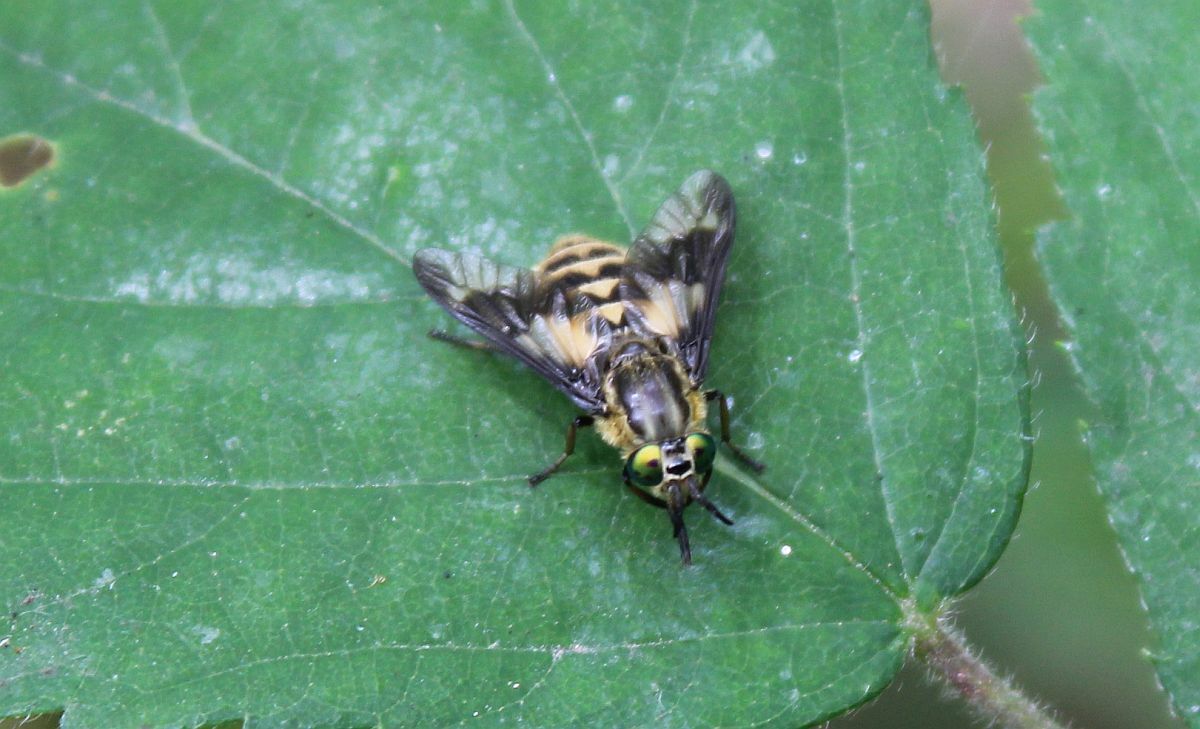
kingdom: Animalia
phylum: Arthropoda
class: Insecta
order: Diptera
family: Tabanidae
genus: Chrysops
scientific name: Chrysops relictus
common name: Twin-lobed deerfly
